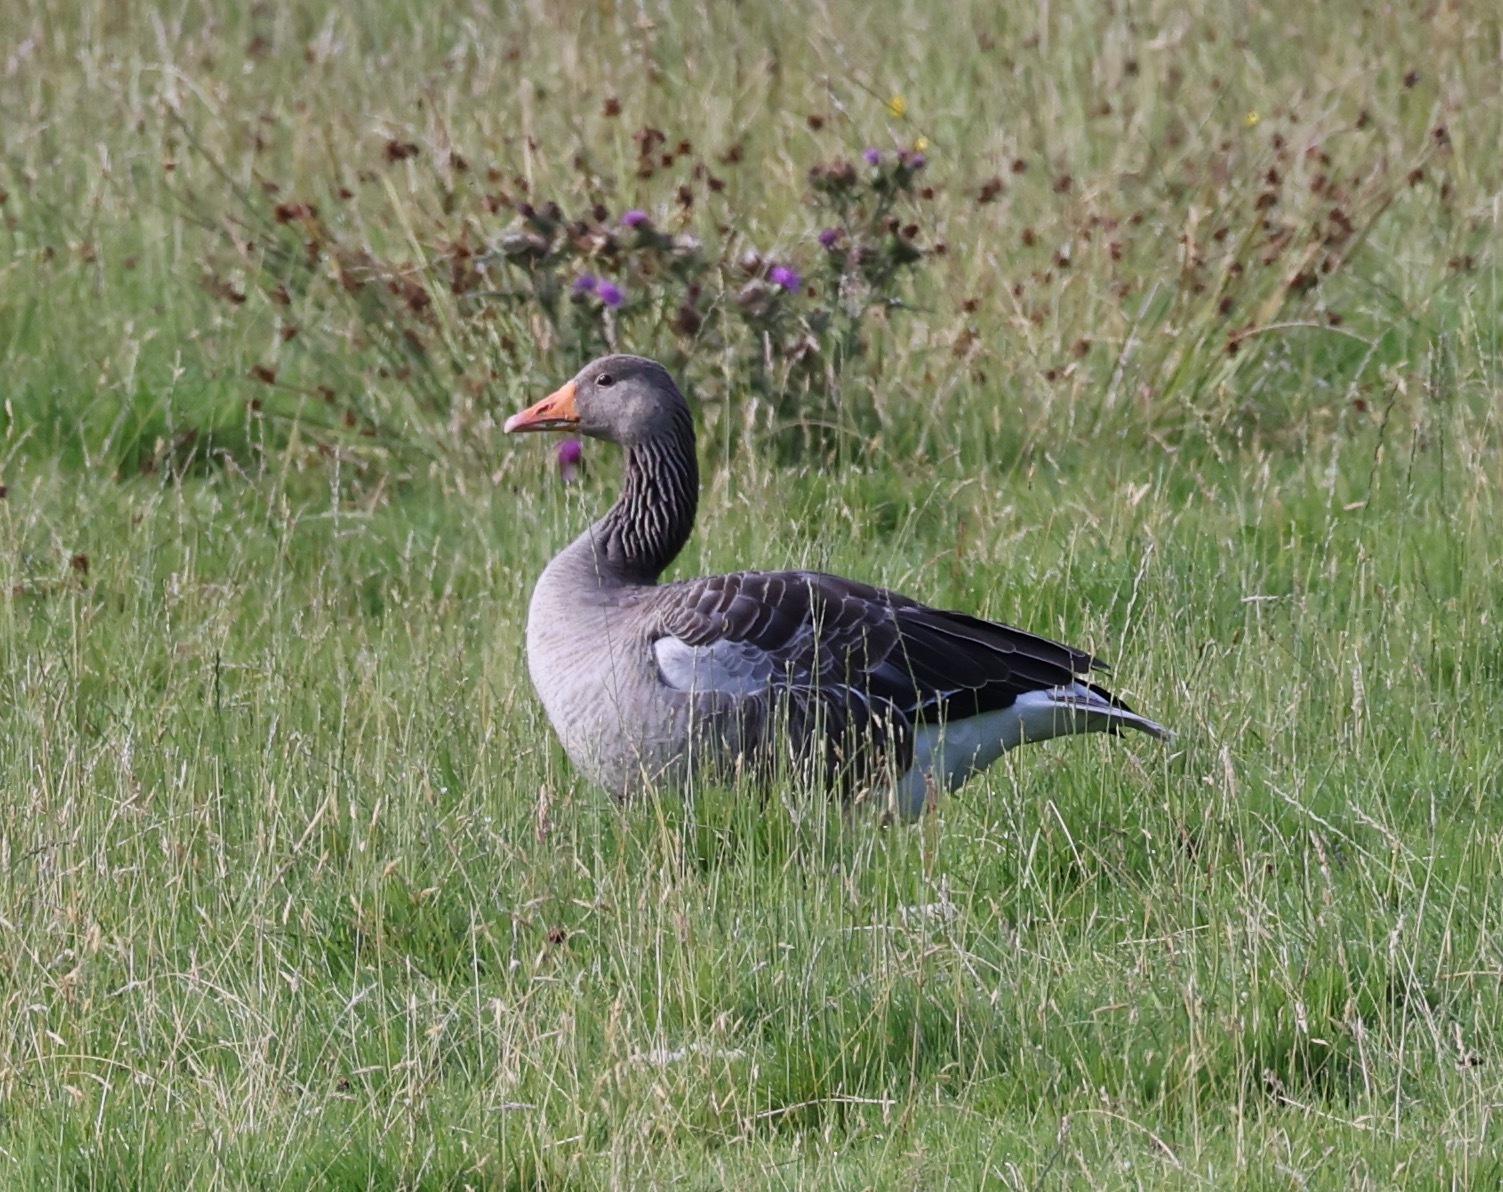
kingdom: Animalia
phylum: Chordata
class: Aves
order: Anseriformes
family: Anatidae
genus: Anser
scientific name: Anser anser
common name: Greylag goose
